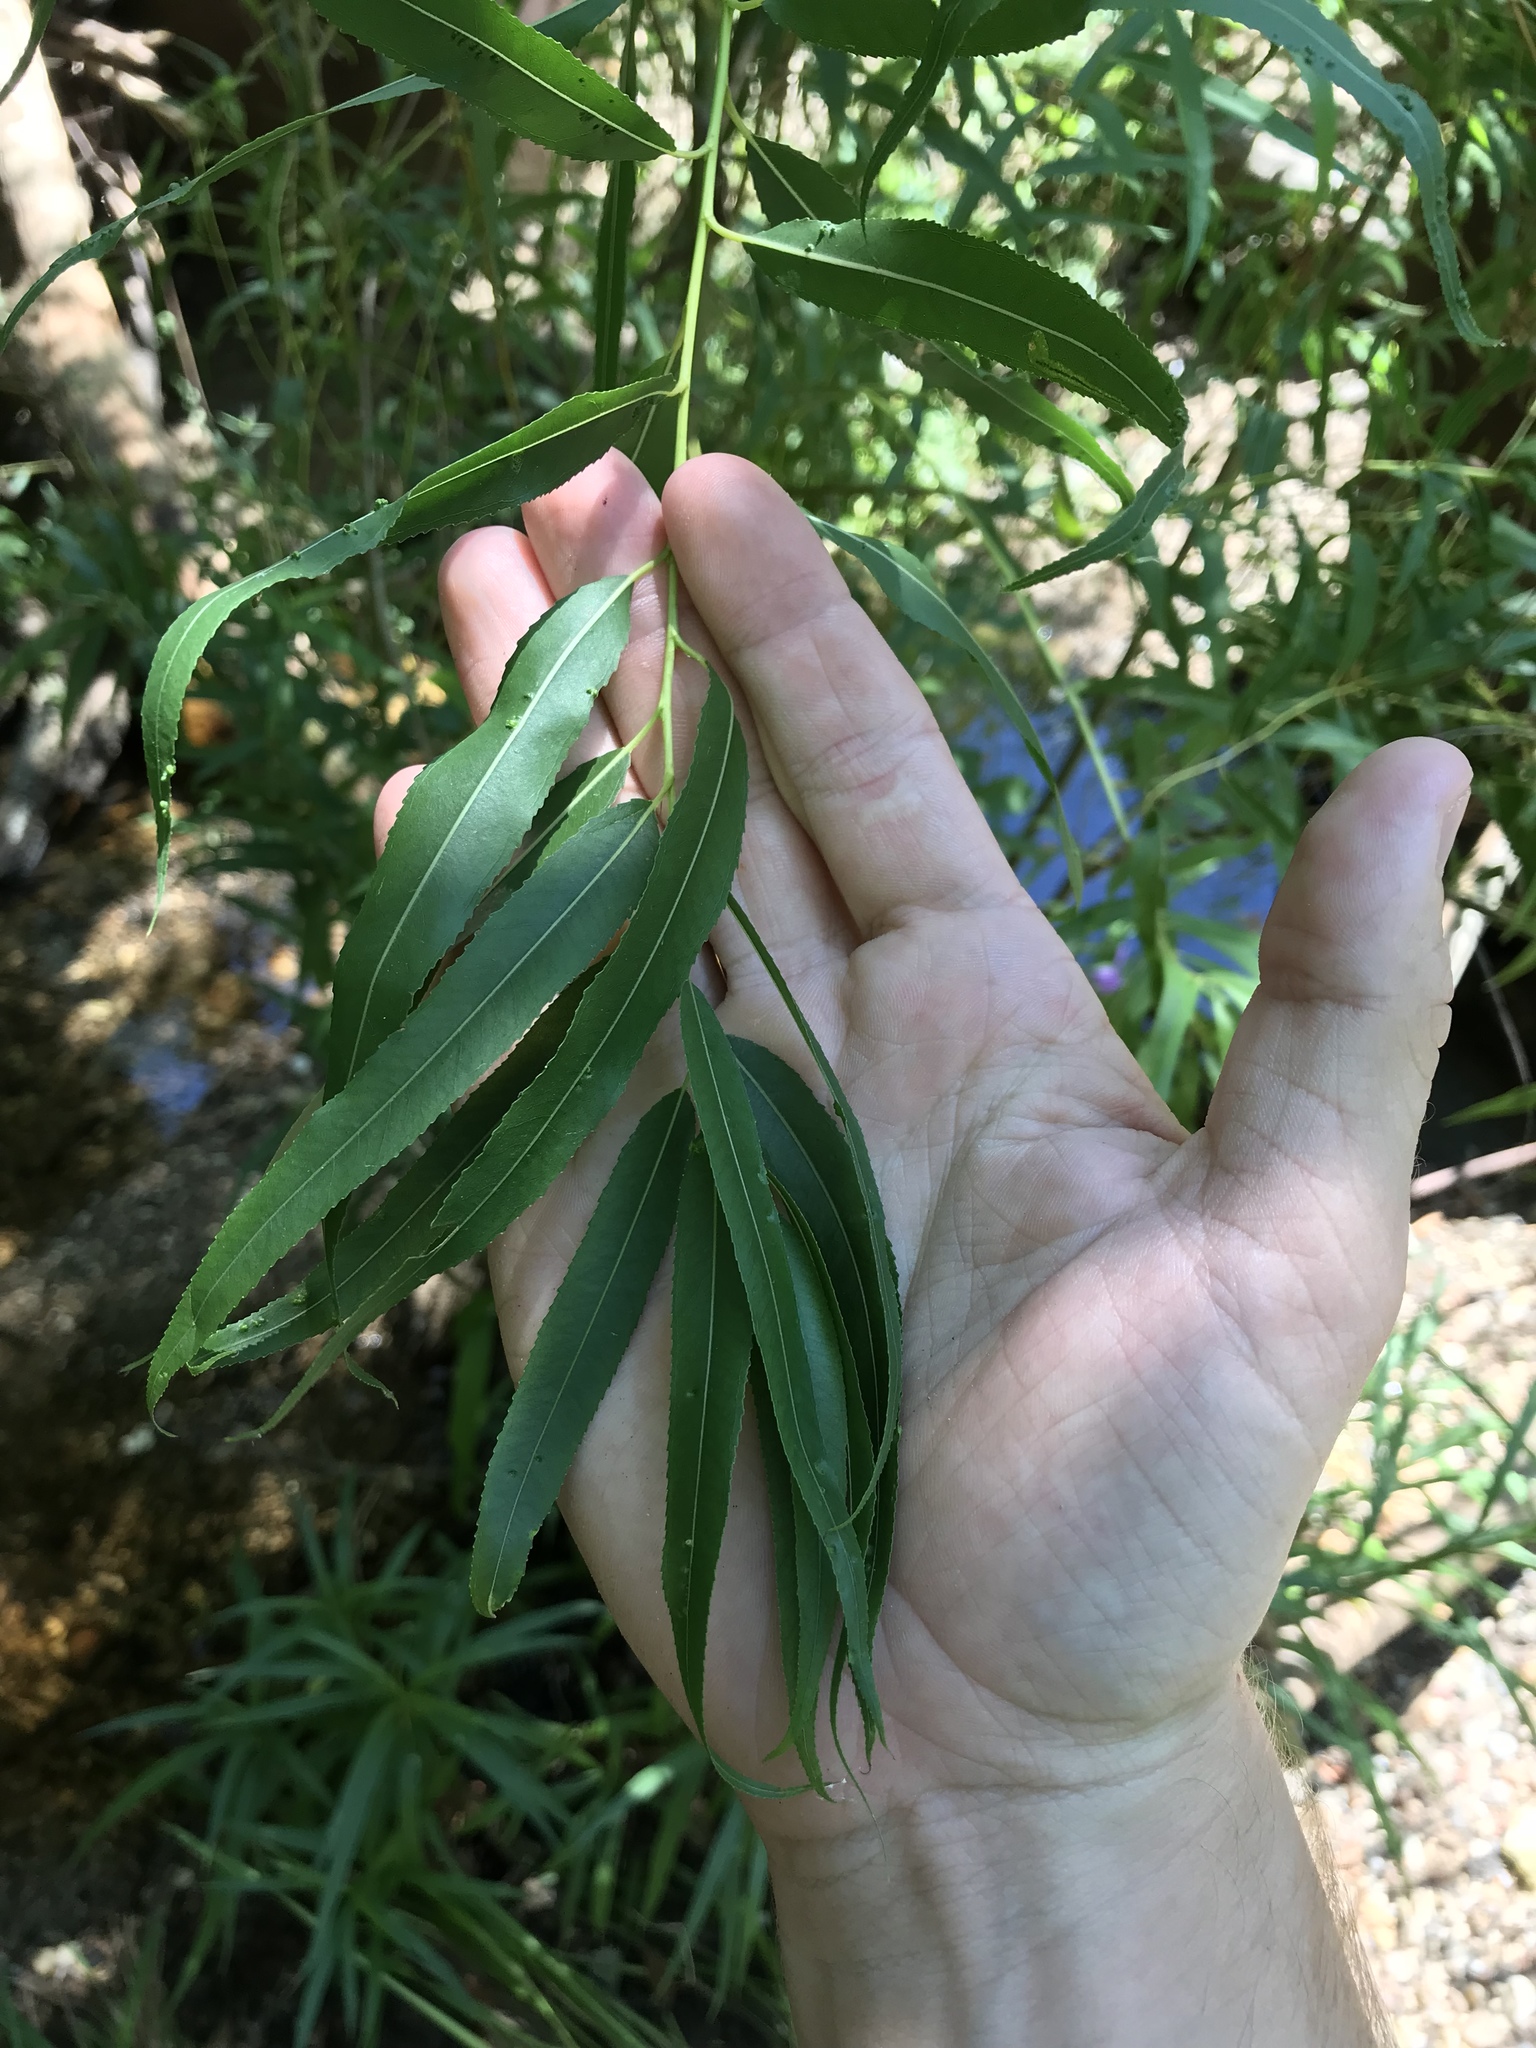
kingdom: Plantae
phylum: Tracheophyta
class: Magnoliopsida
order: Malpighiales
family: Salicaceae
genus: Salix
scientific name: Salix nigra
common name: Black willow
